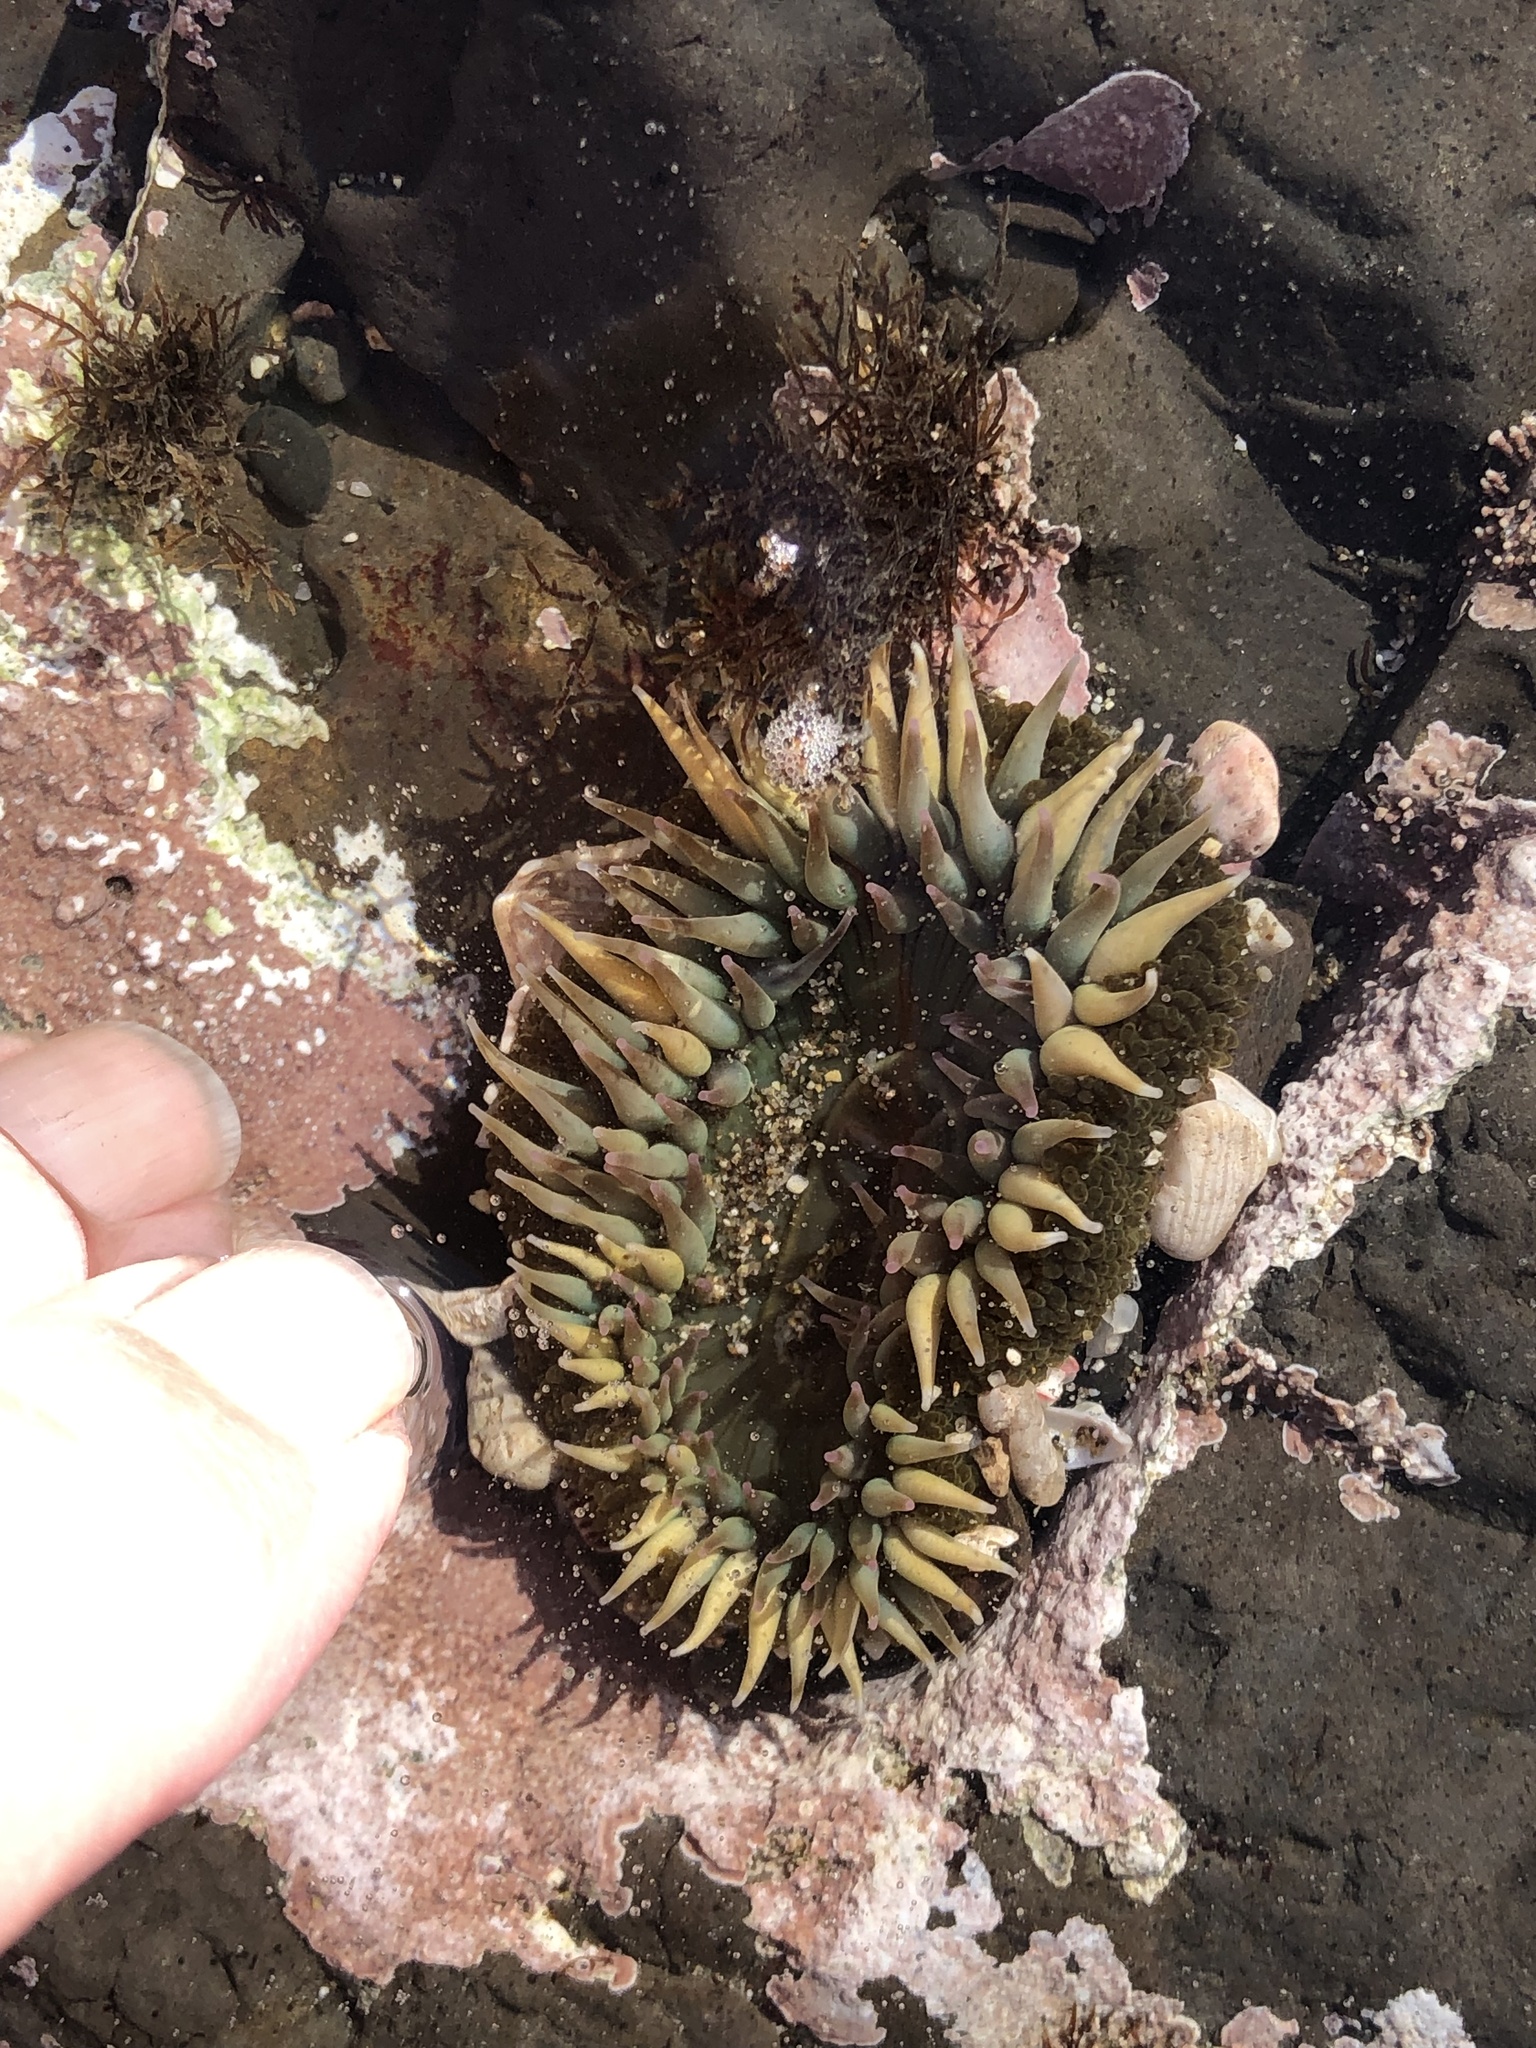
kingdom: Animalia
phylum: Cnidaria
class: Anthozoa
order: Actiniaria
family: Actiniidae
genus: Anthopleura
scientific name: Anthopleura sola
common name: Sun anemone
